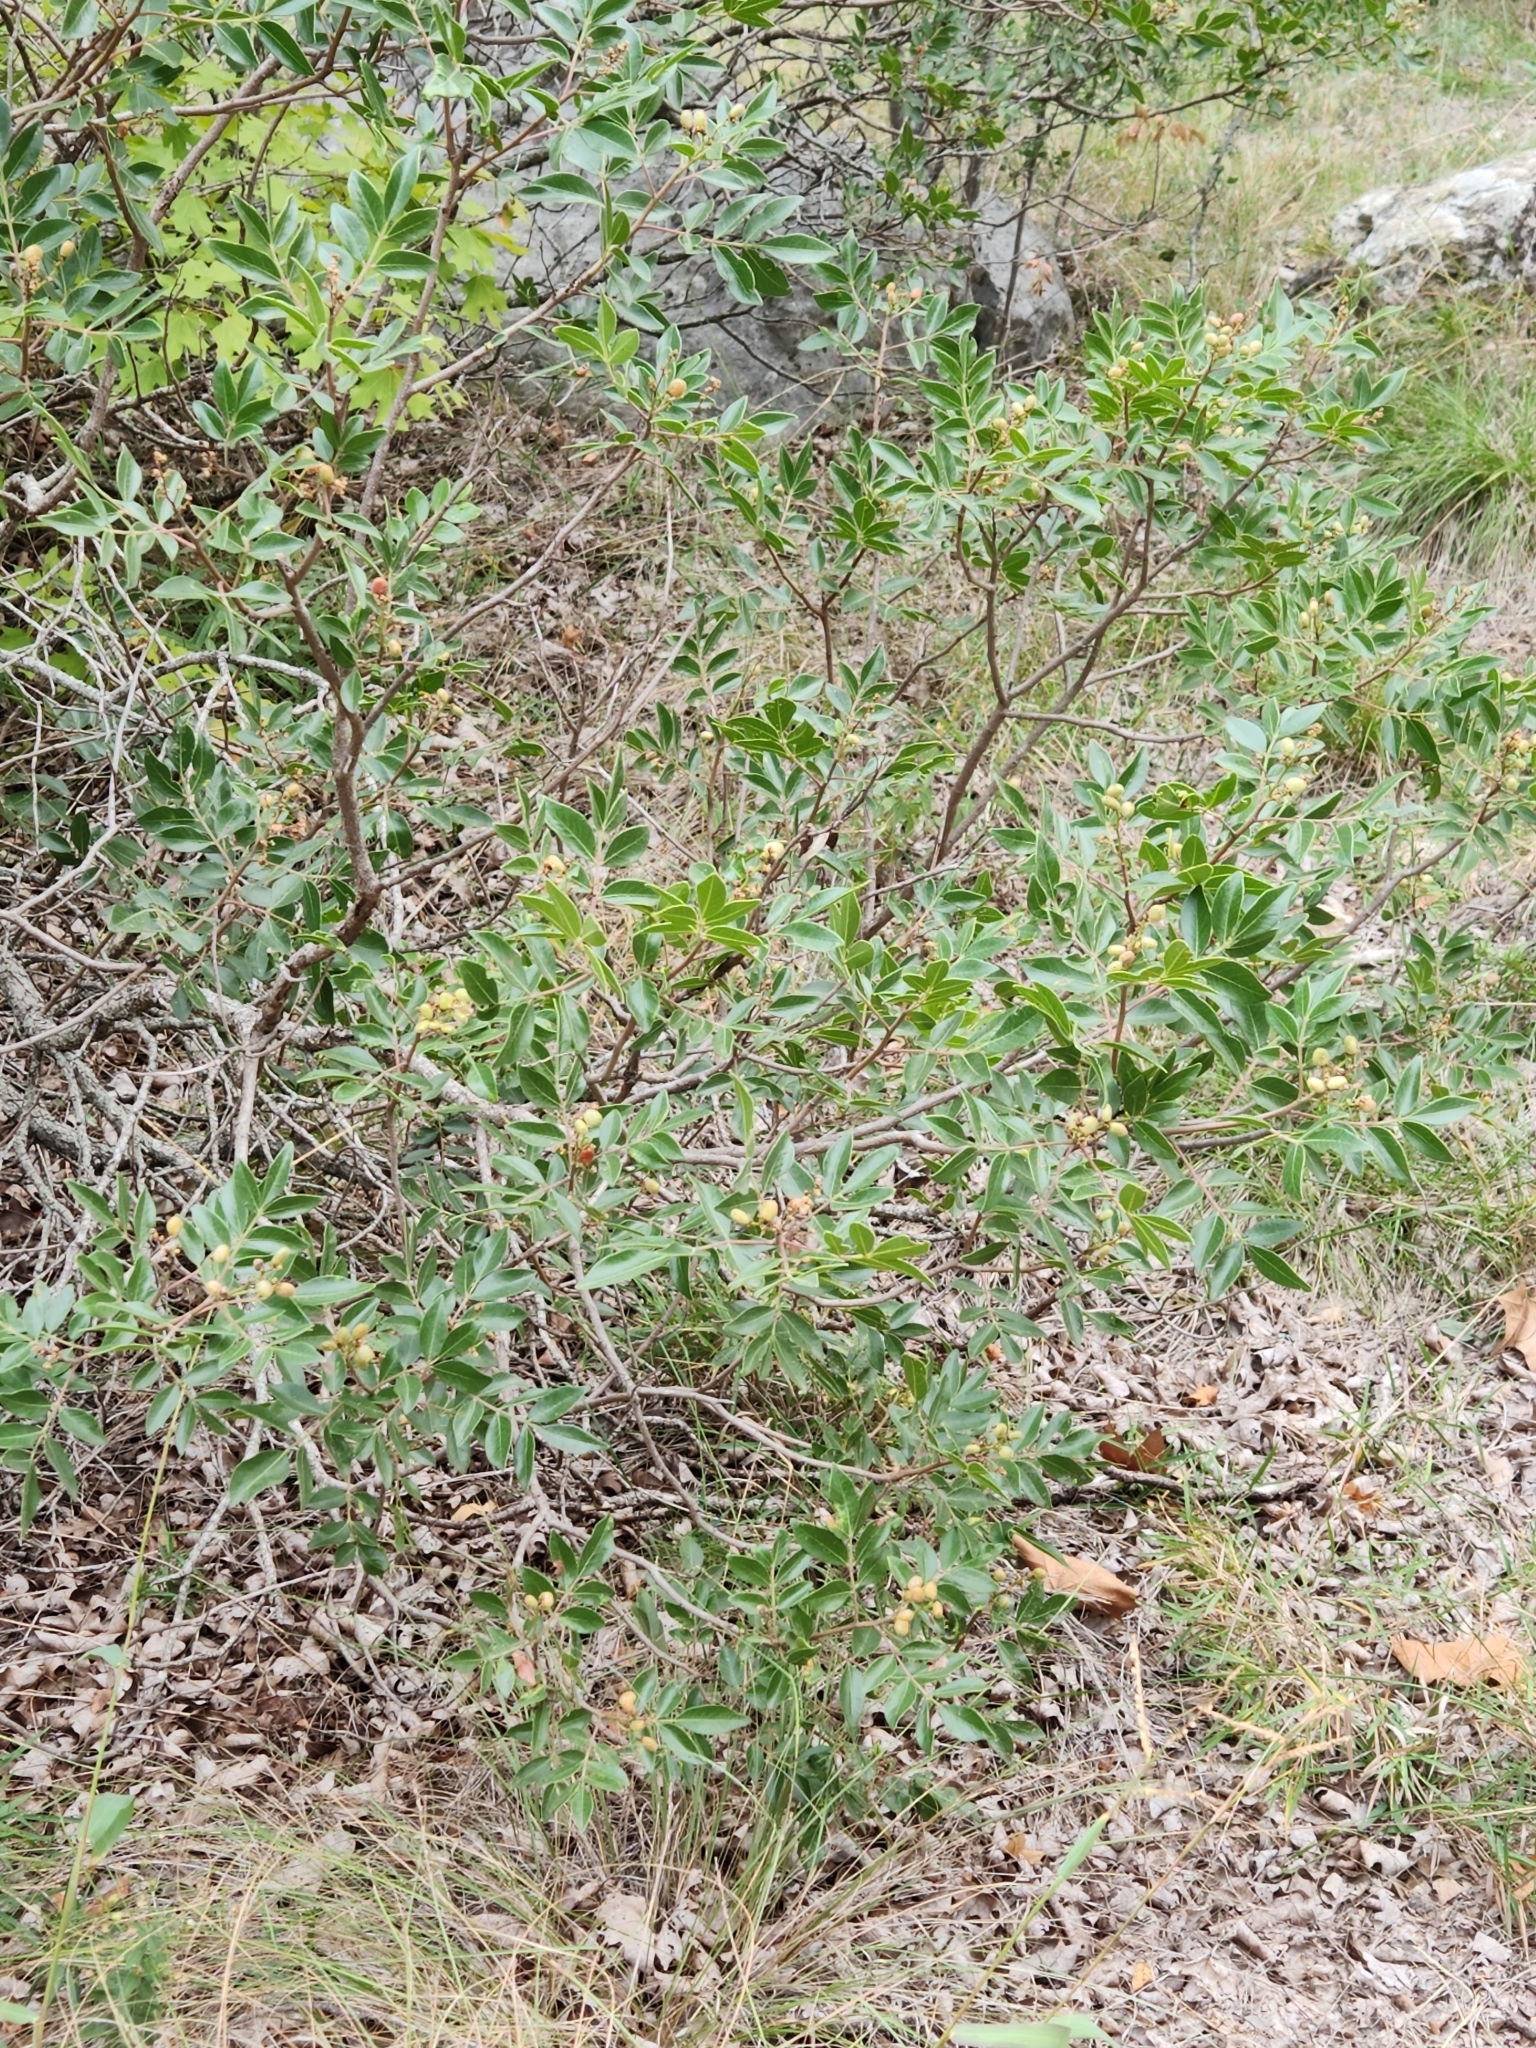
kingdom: Plantae
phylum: Tracheophyta
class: Magnoliopsida
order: Sapindales
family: Anacardiaceae
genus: Rhus
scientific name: Rhus virens
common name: Evergreen sumac
